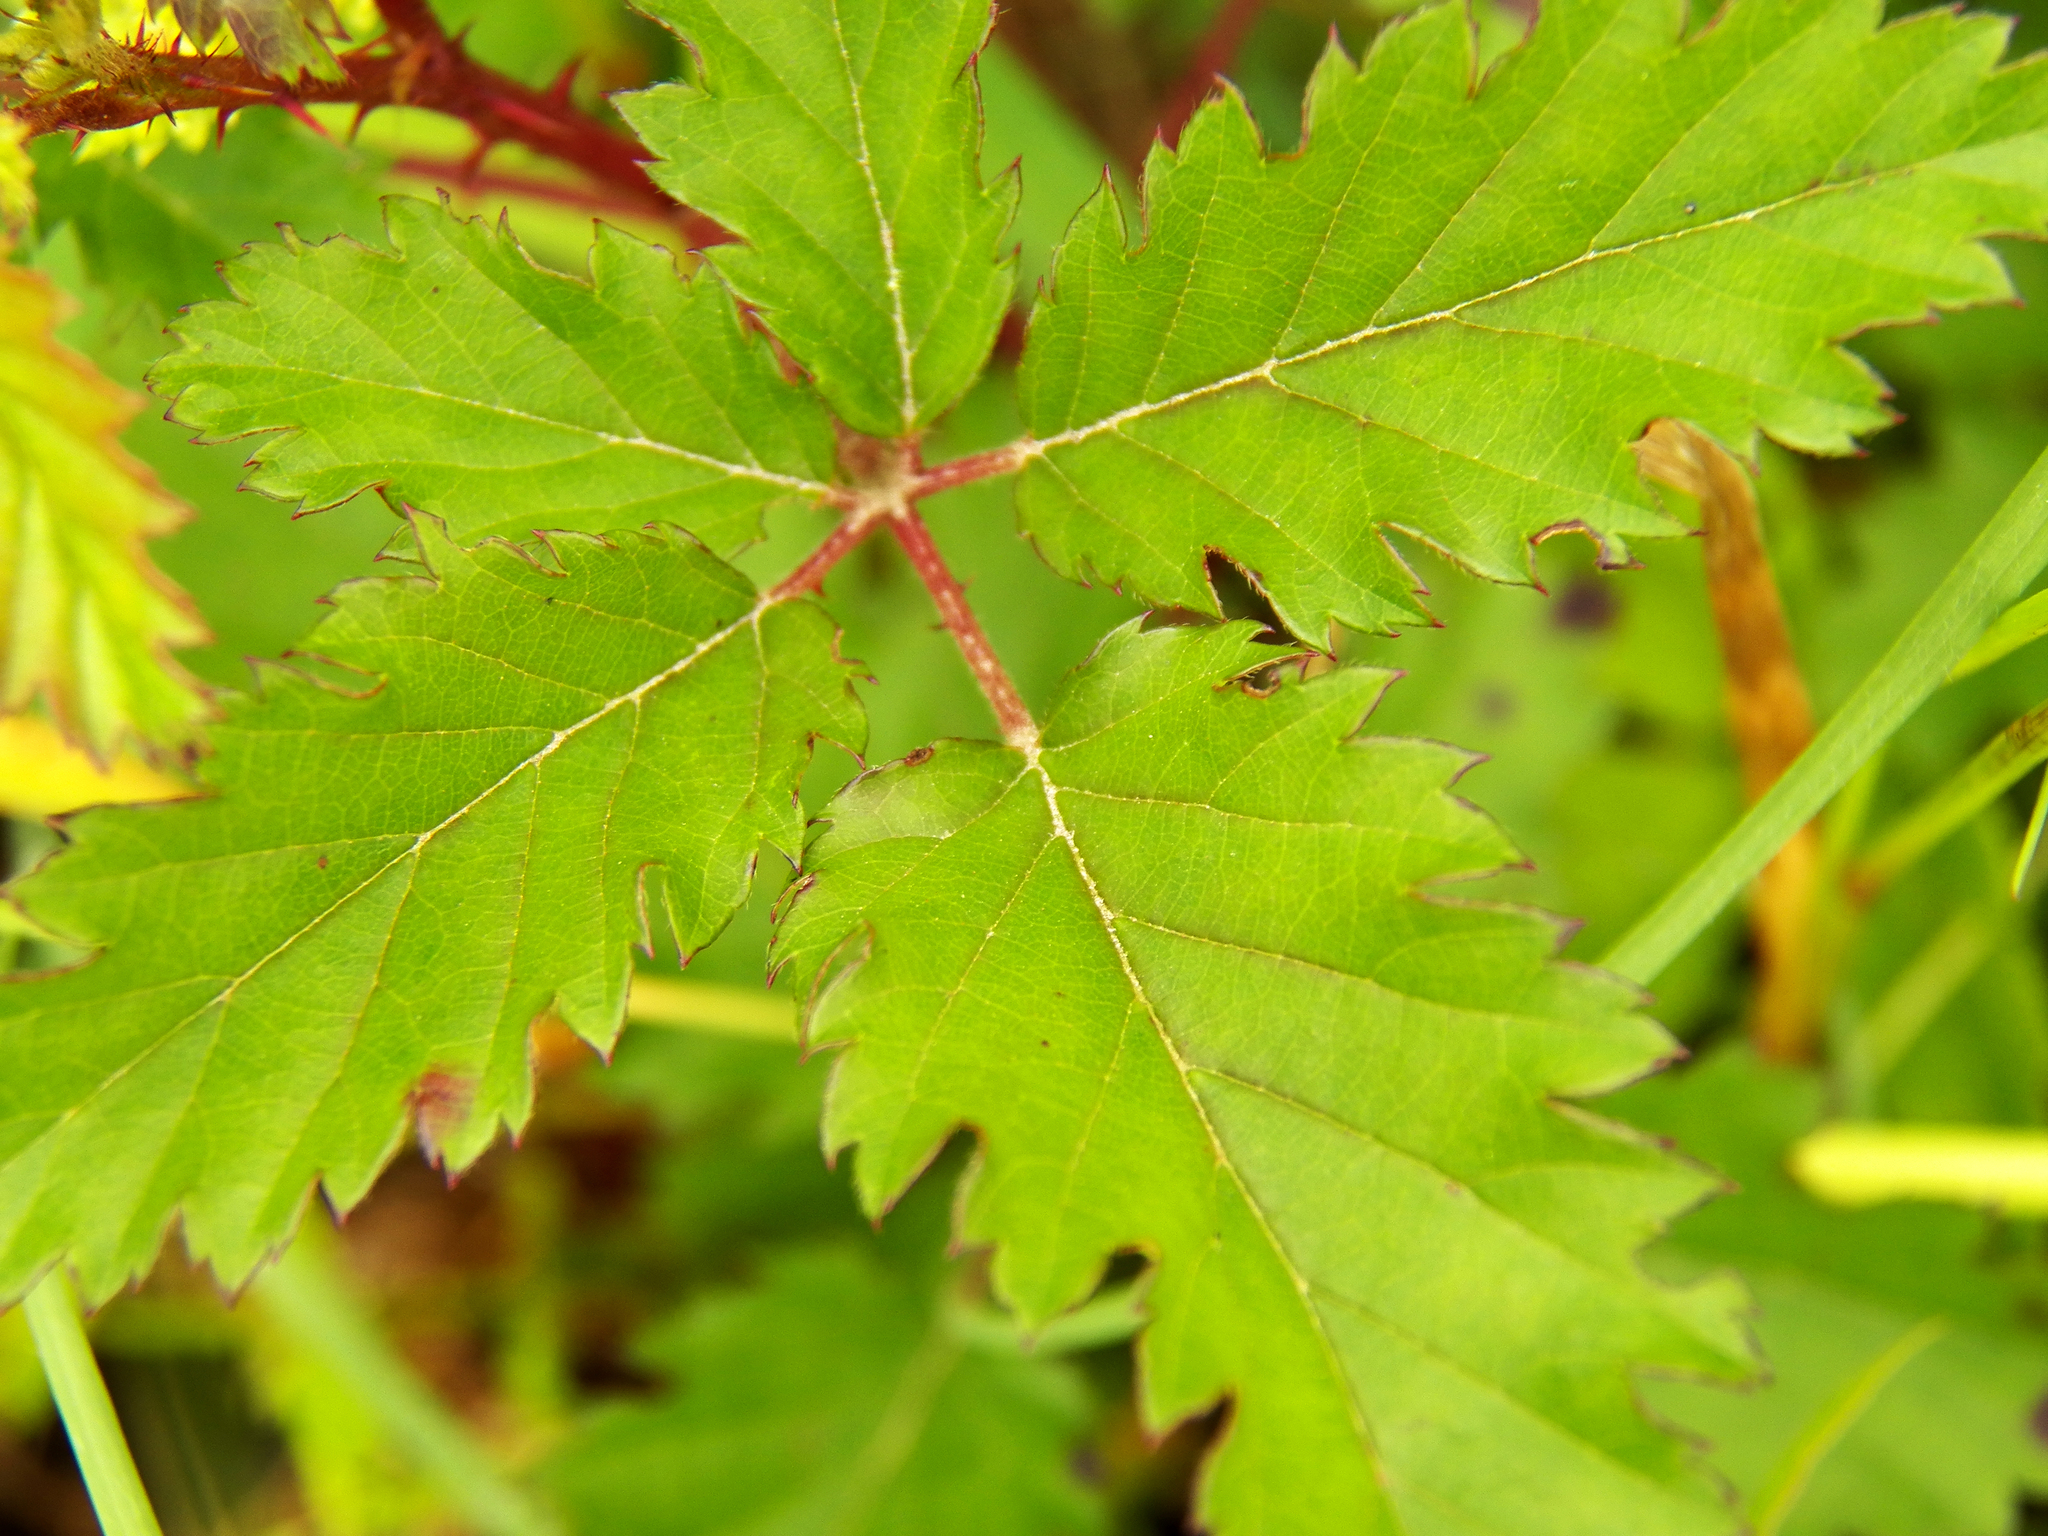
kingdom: Plantae
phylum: Tracheophyta
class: Magnoliopsida
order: Rosales
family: Rosaceae
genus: Rubus
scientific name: Rubus trivialis
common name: Southern dewberry
